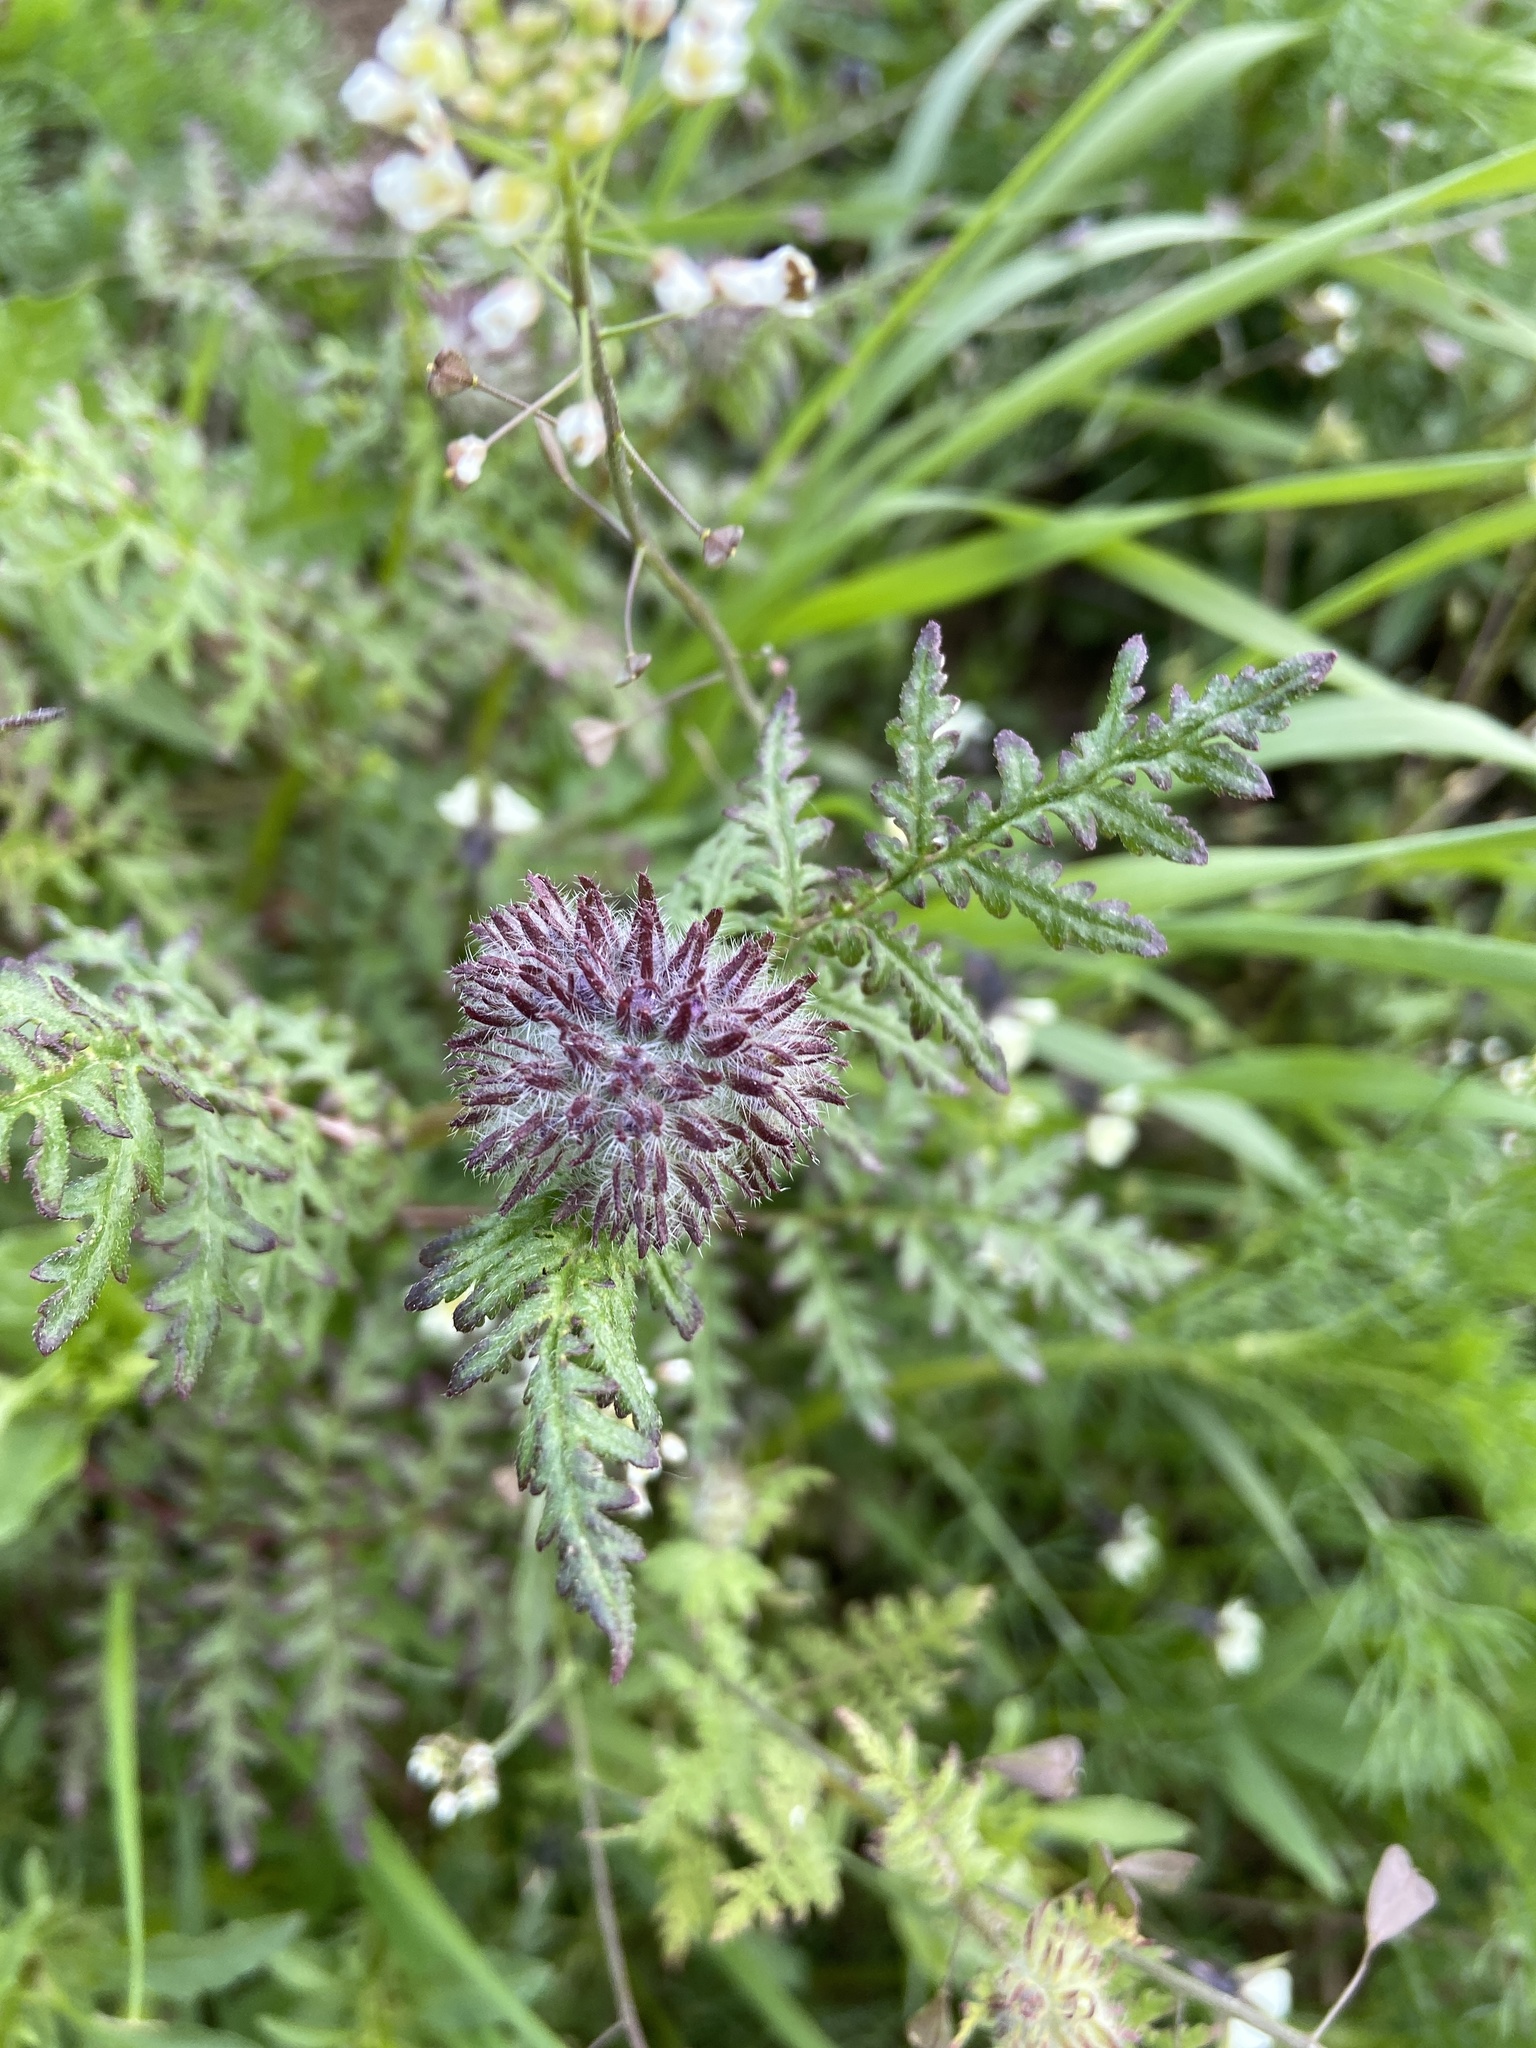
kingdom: Plantae
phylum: Tracheophyta
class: Magnoliopsida
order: Boraginales
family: Hydrophyllaceae
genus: Phacelia
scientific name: Phacelia tanacetifolia
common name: Phacelia
